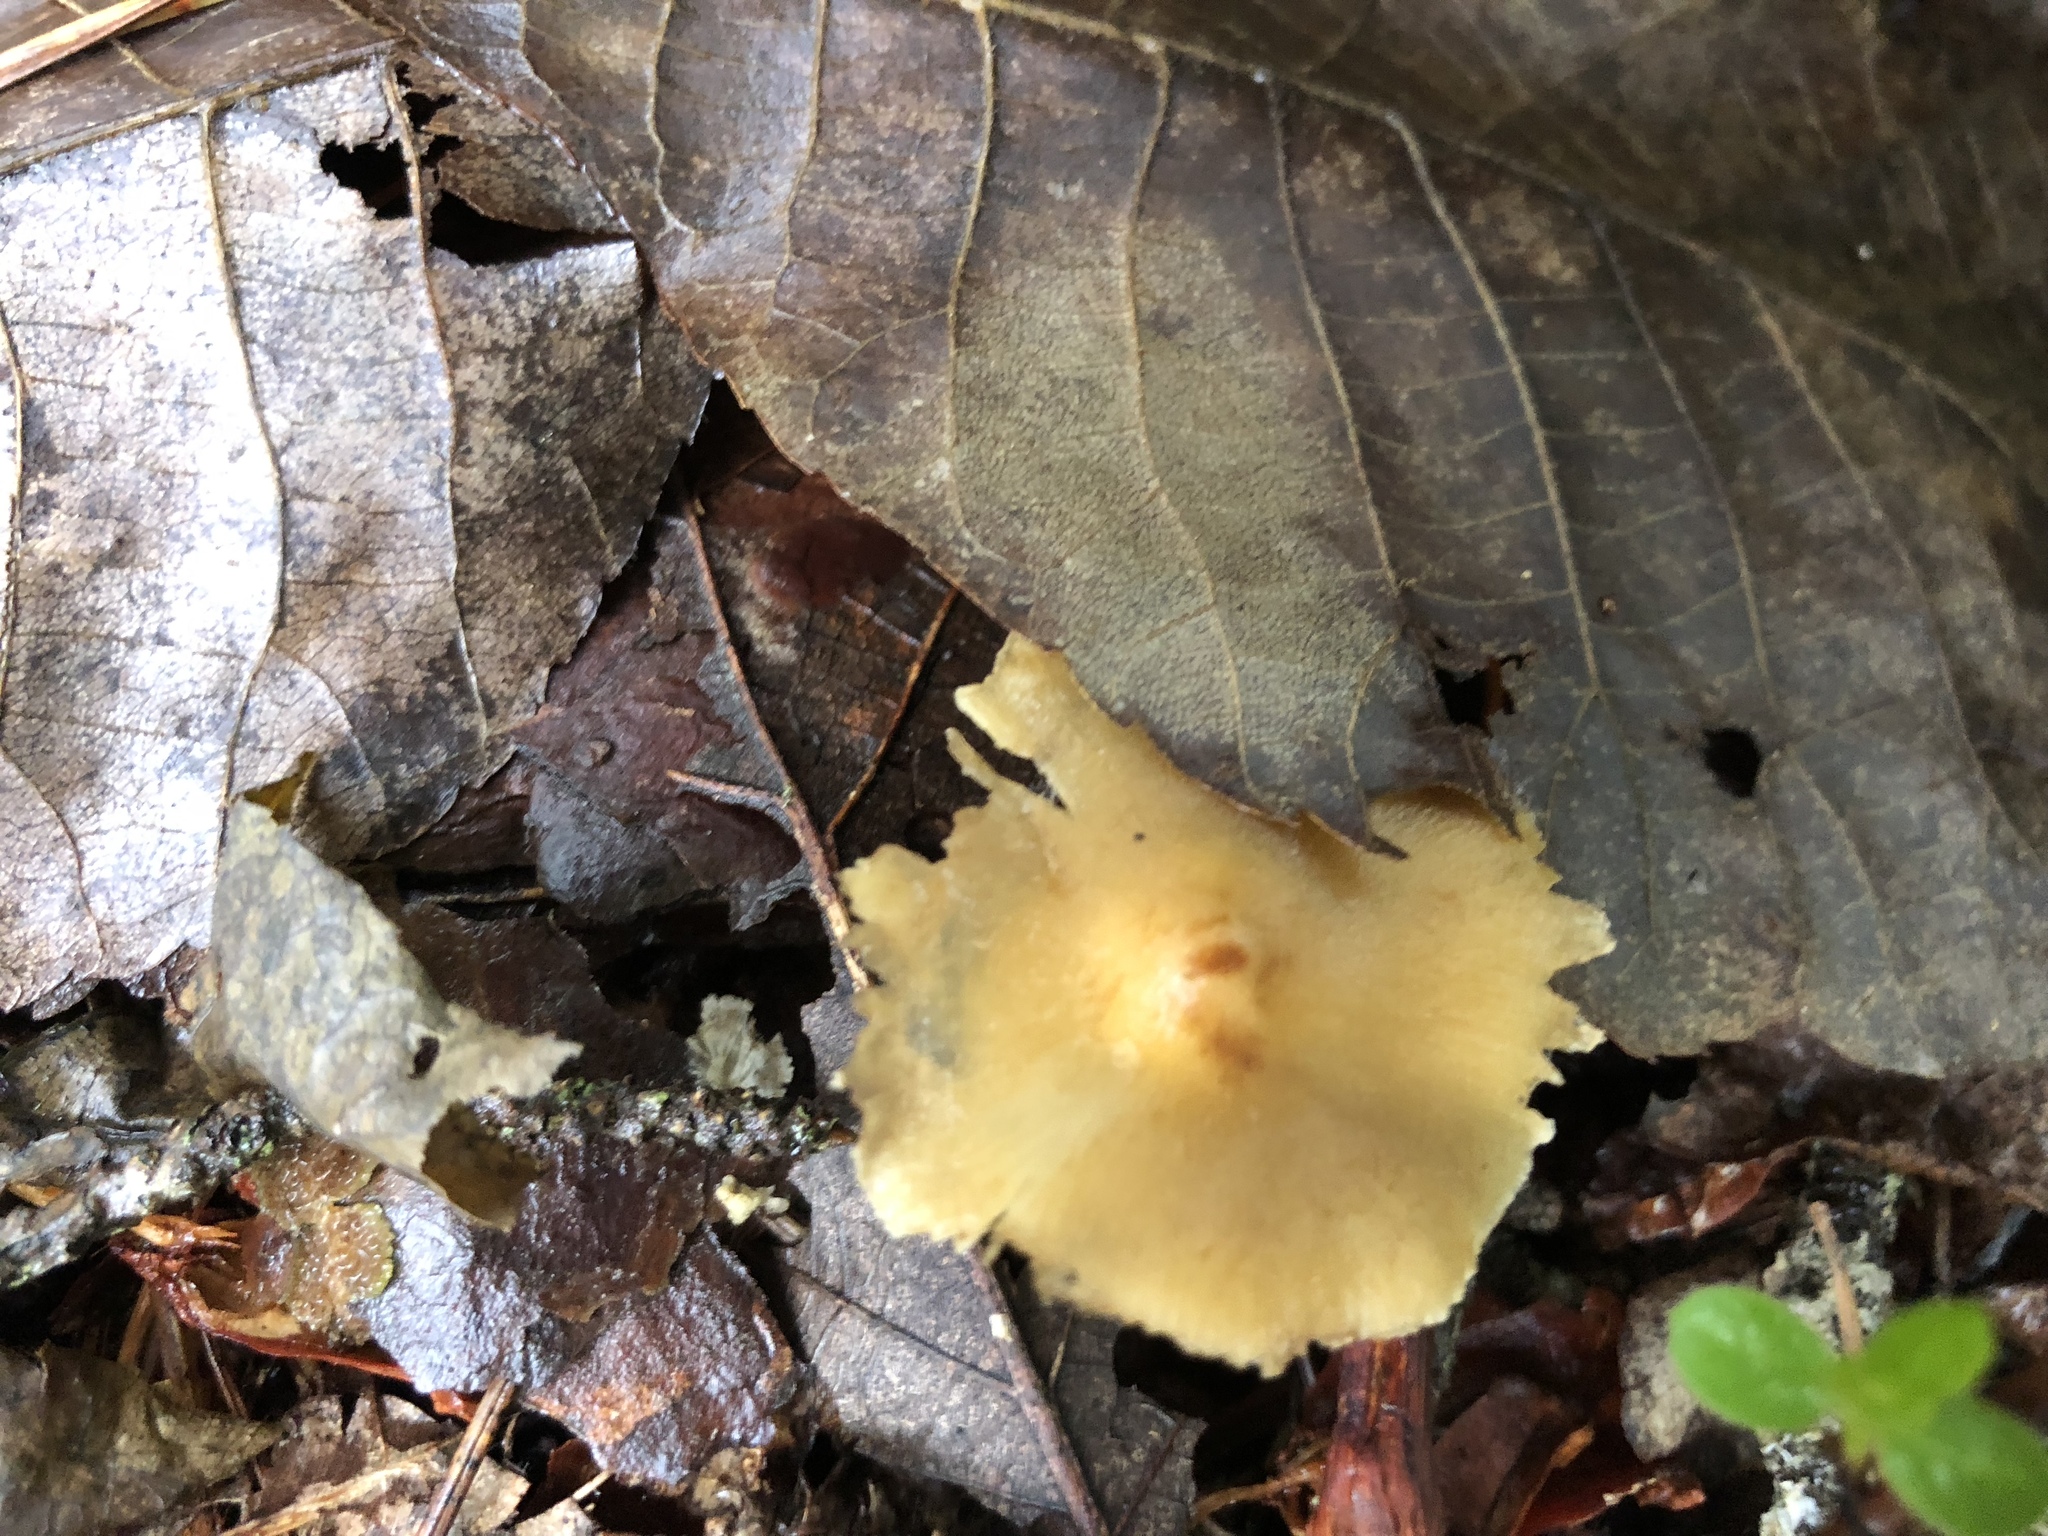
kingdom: Fungi
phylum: Basidiomycota
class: Agaricomycetes
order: Agaricales
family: Physalacriaceae
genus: Desarmillaria
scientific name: Desarmillaria caespitosa
